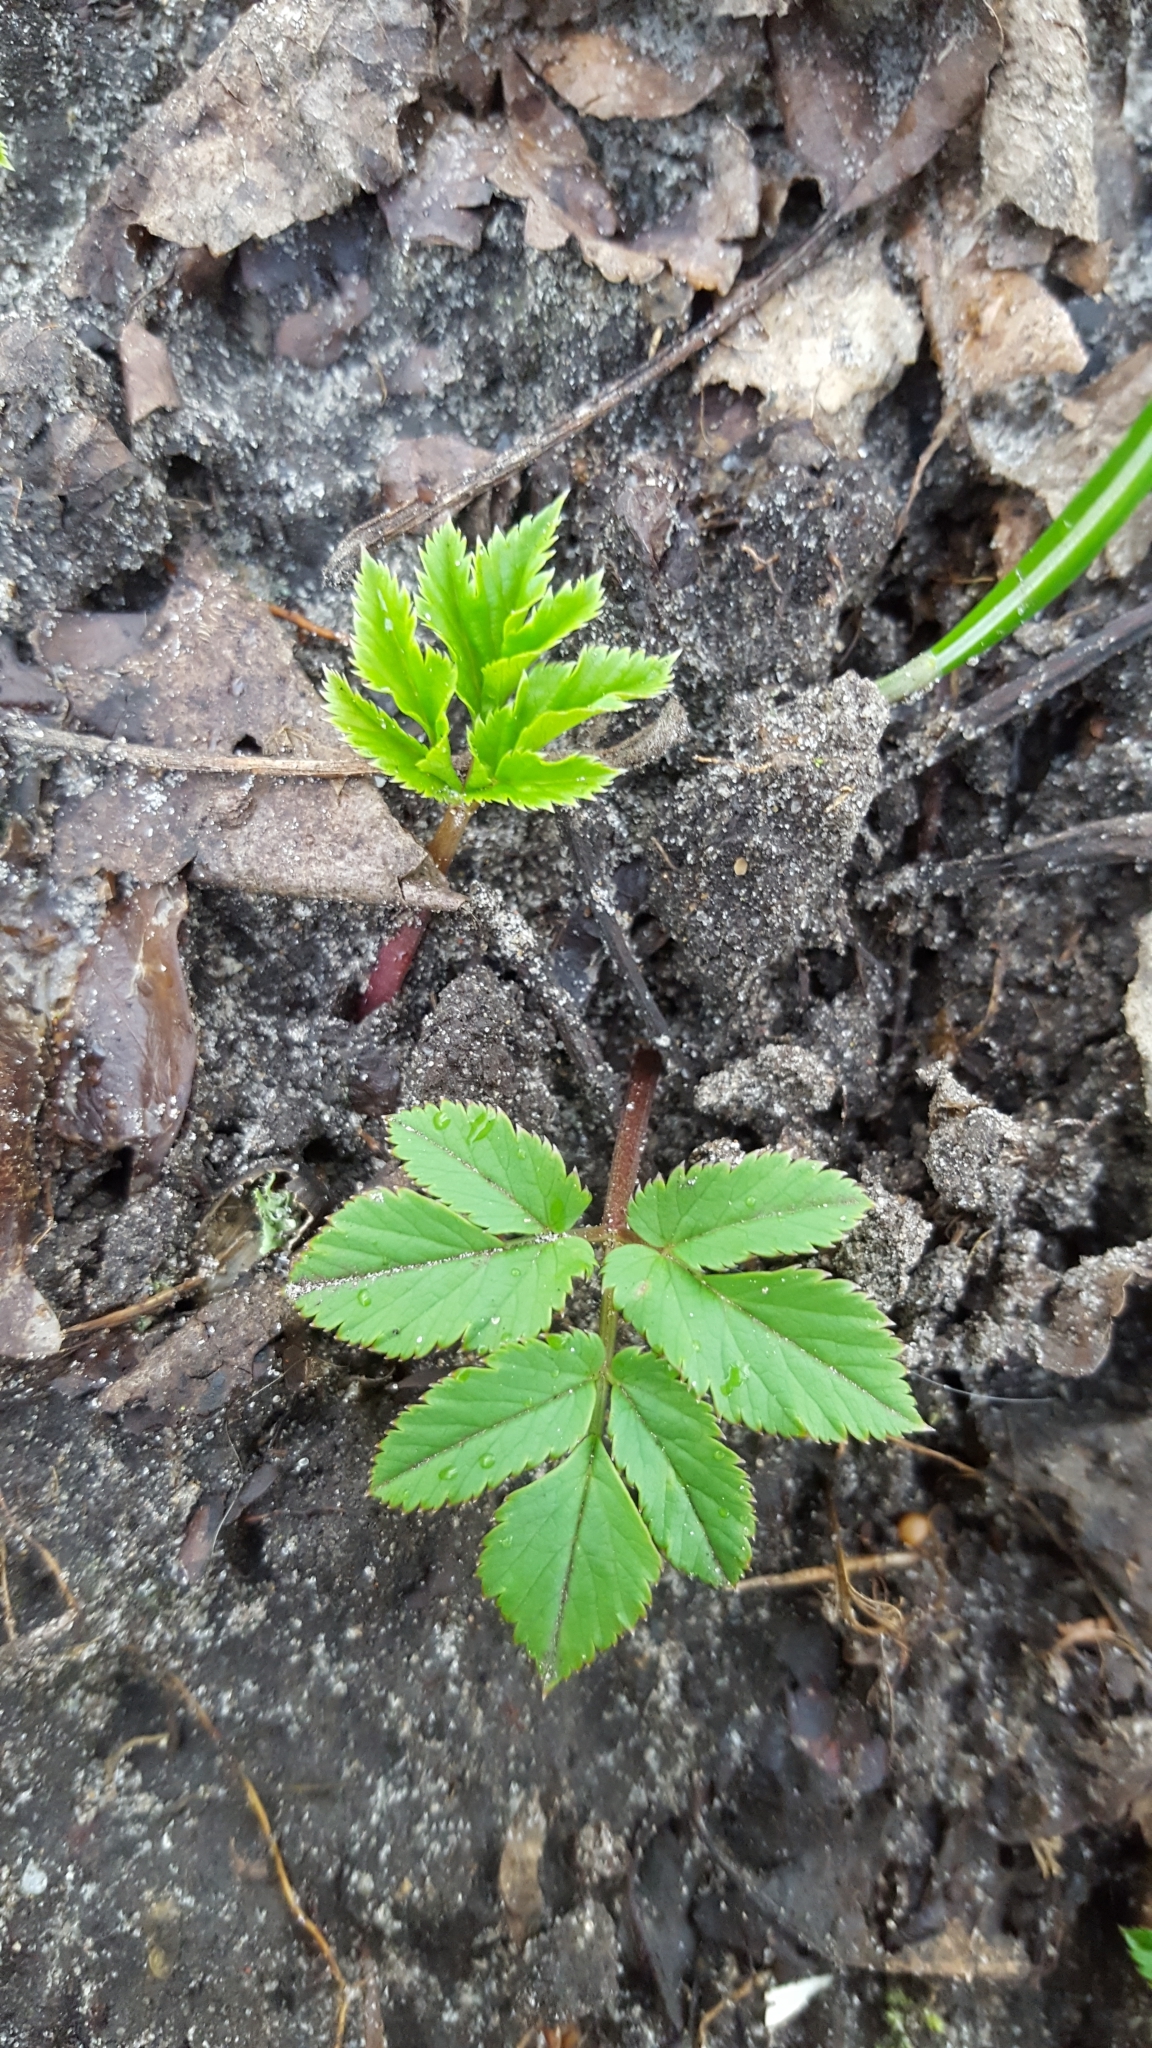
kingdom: Plantae
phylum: Tracheophyta
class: Magnoliopsida
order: Apiales
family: Apiaceae
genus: Aegopodium
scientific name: Aegopodium podagraria
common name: Ground-elder
